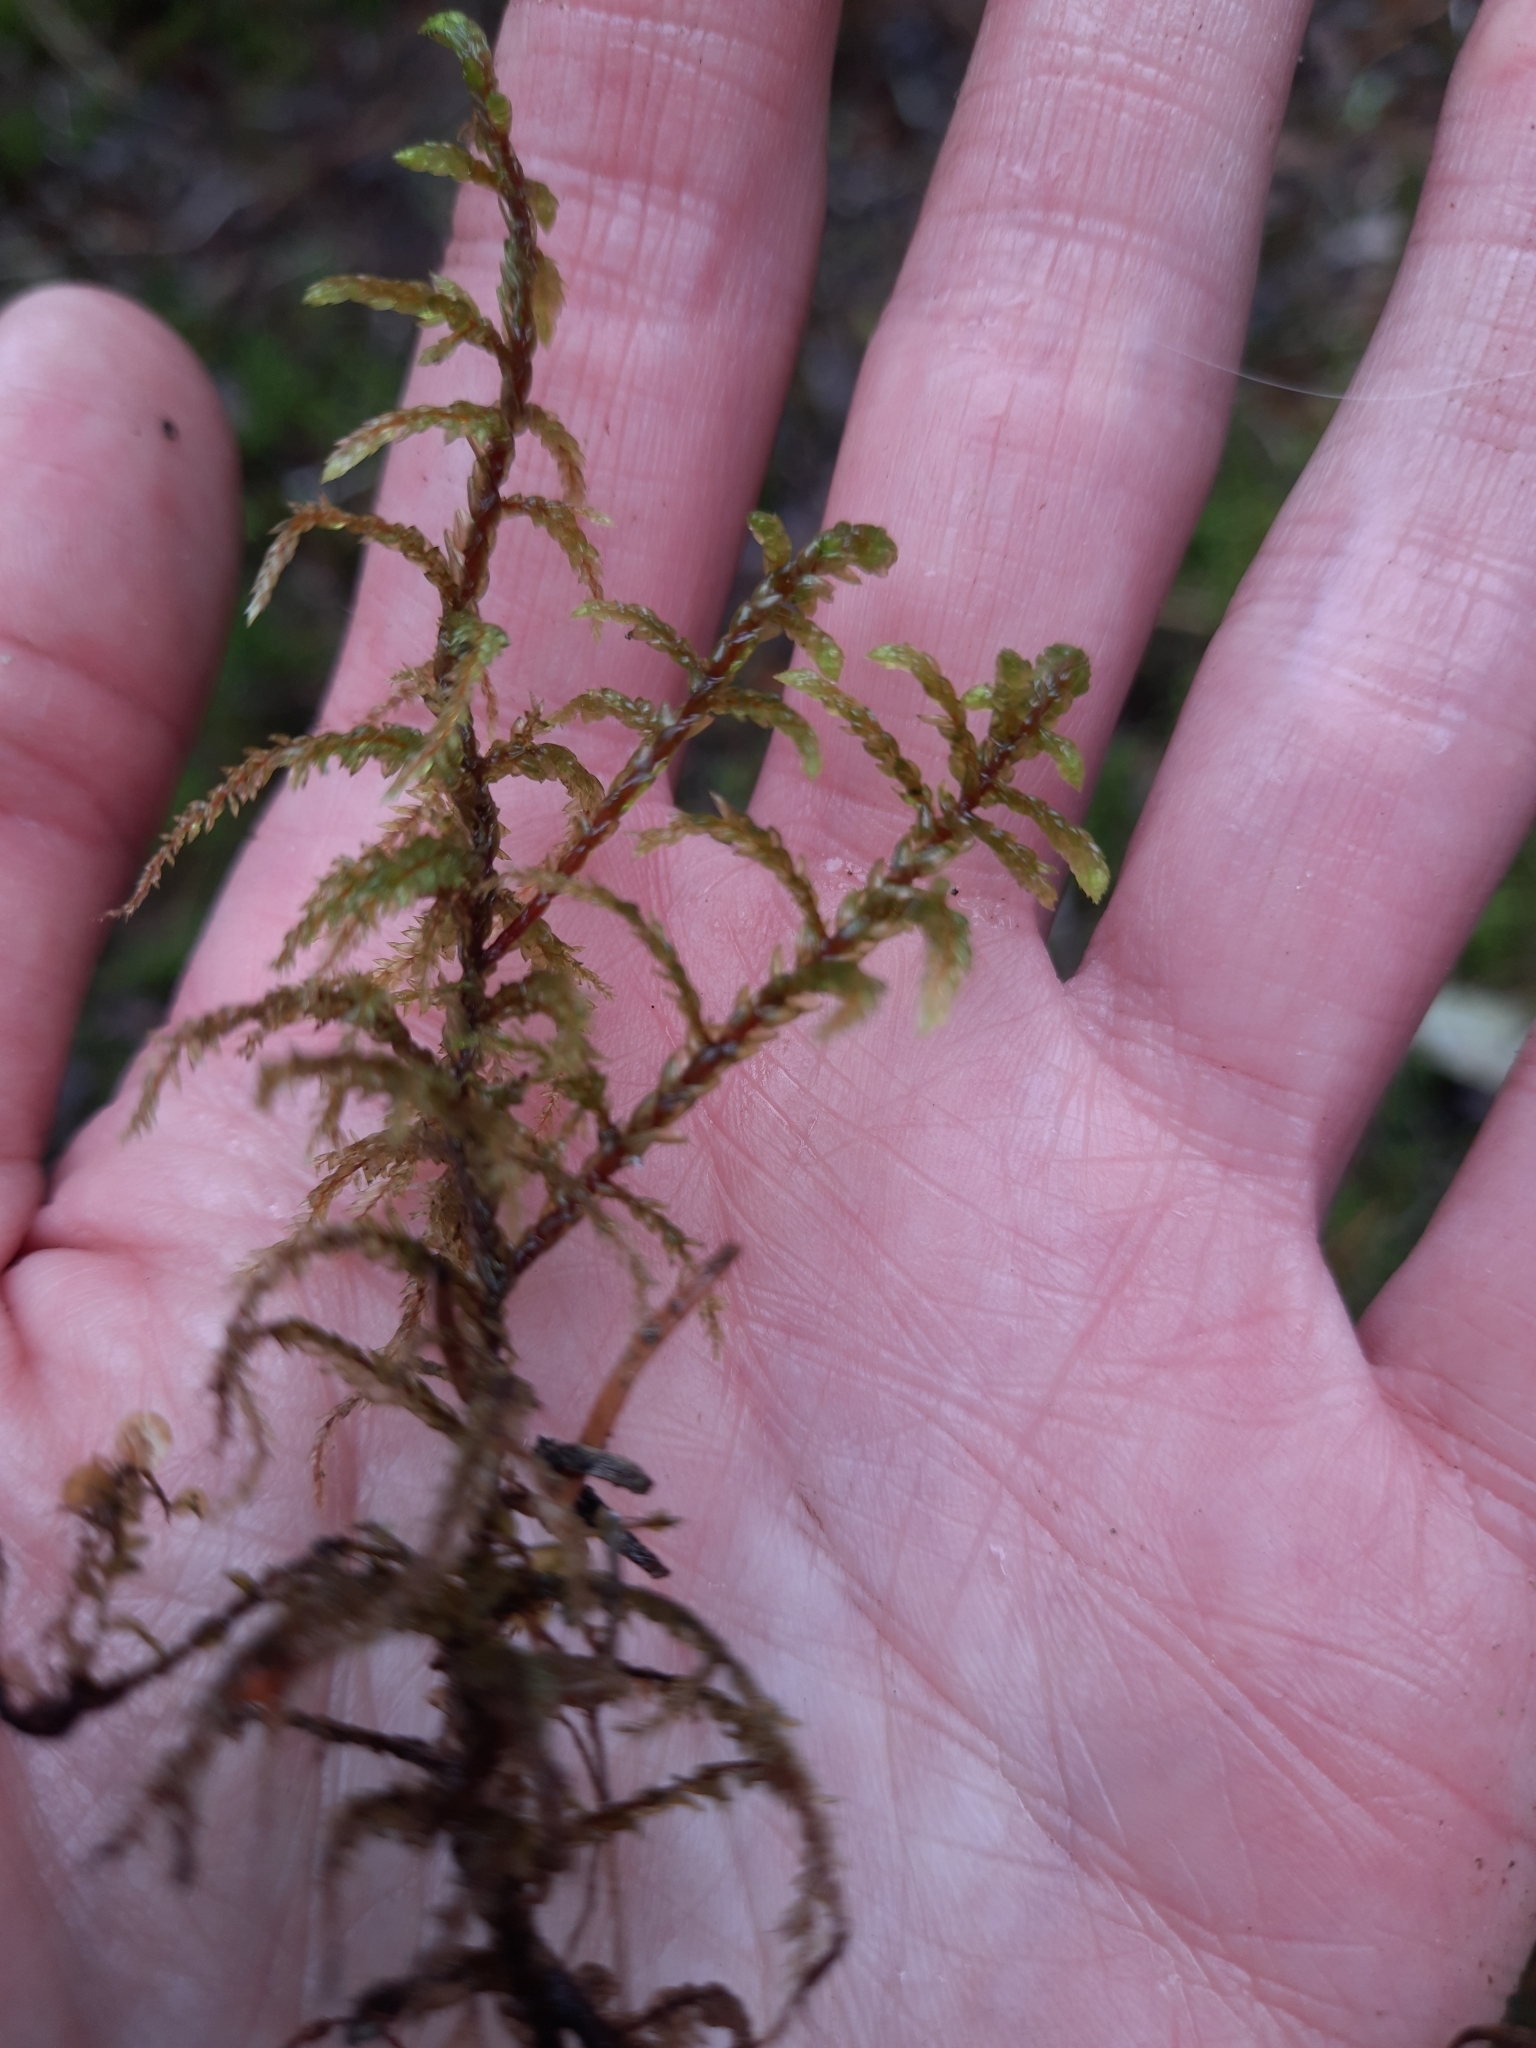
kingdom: Plantae
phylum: Bryophyta
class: Bryopsida
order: Hypnales
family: Hylocomiaceae
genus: Pleurozium
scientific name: Pleurozium schreberi
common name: Red-stemmed feather moss
